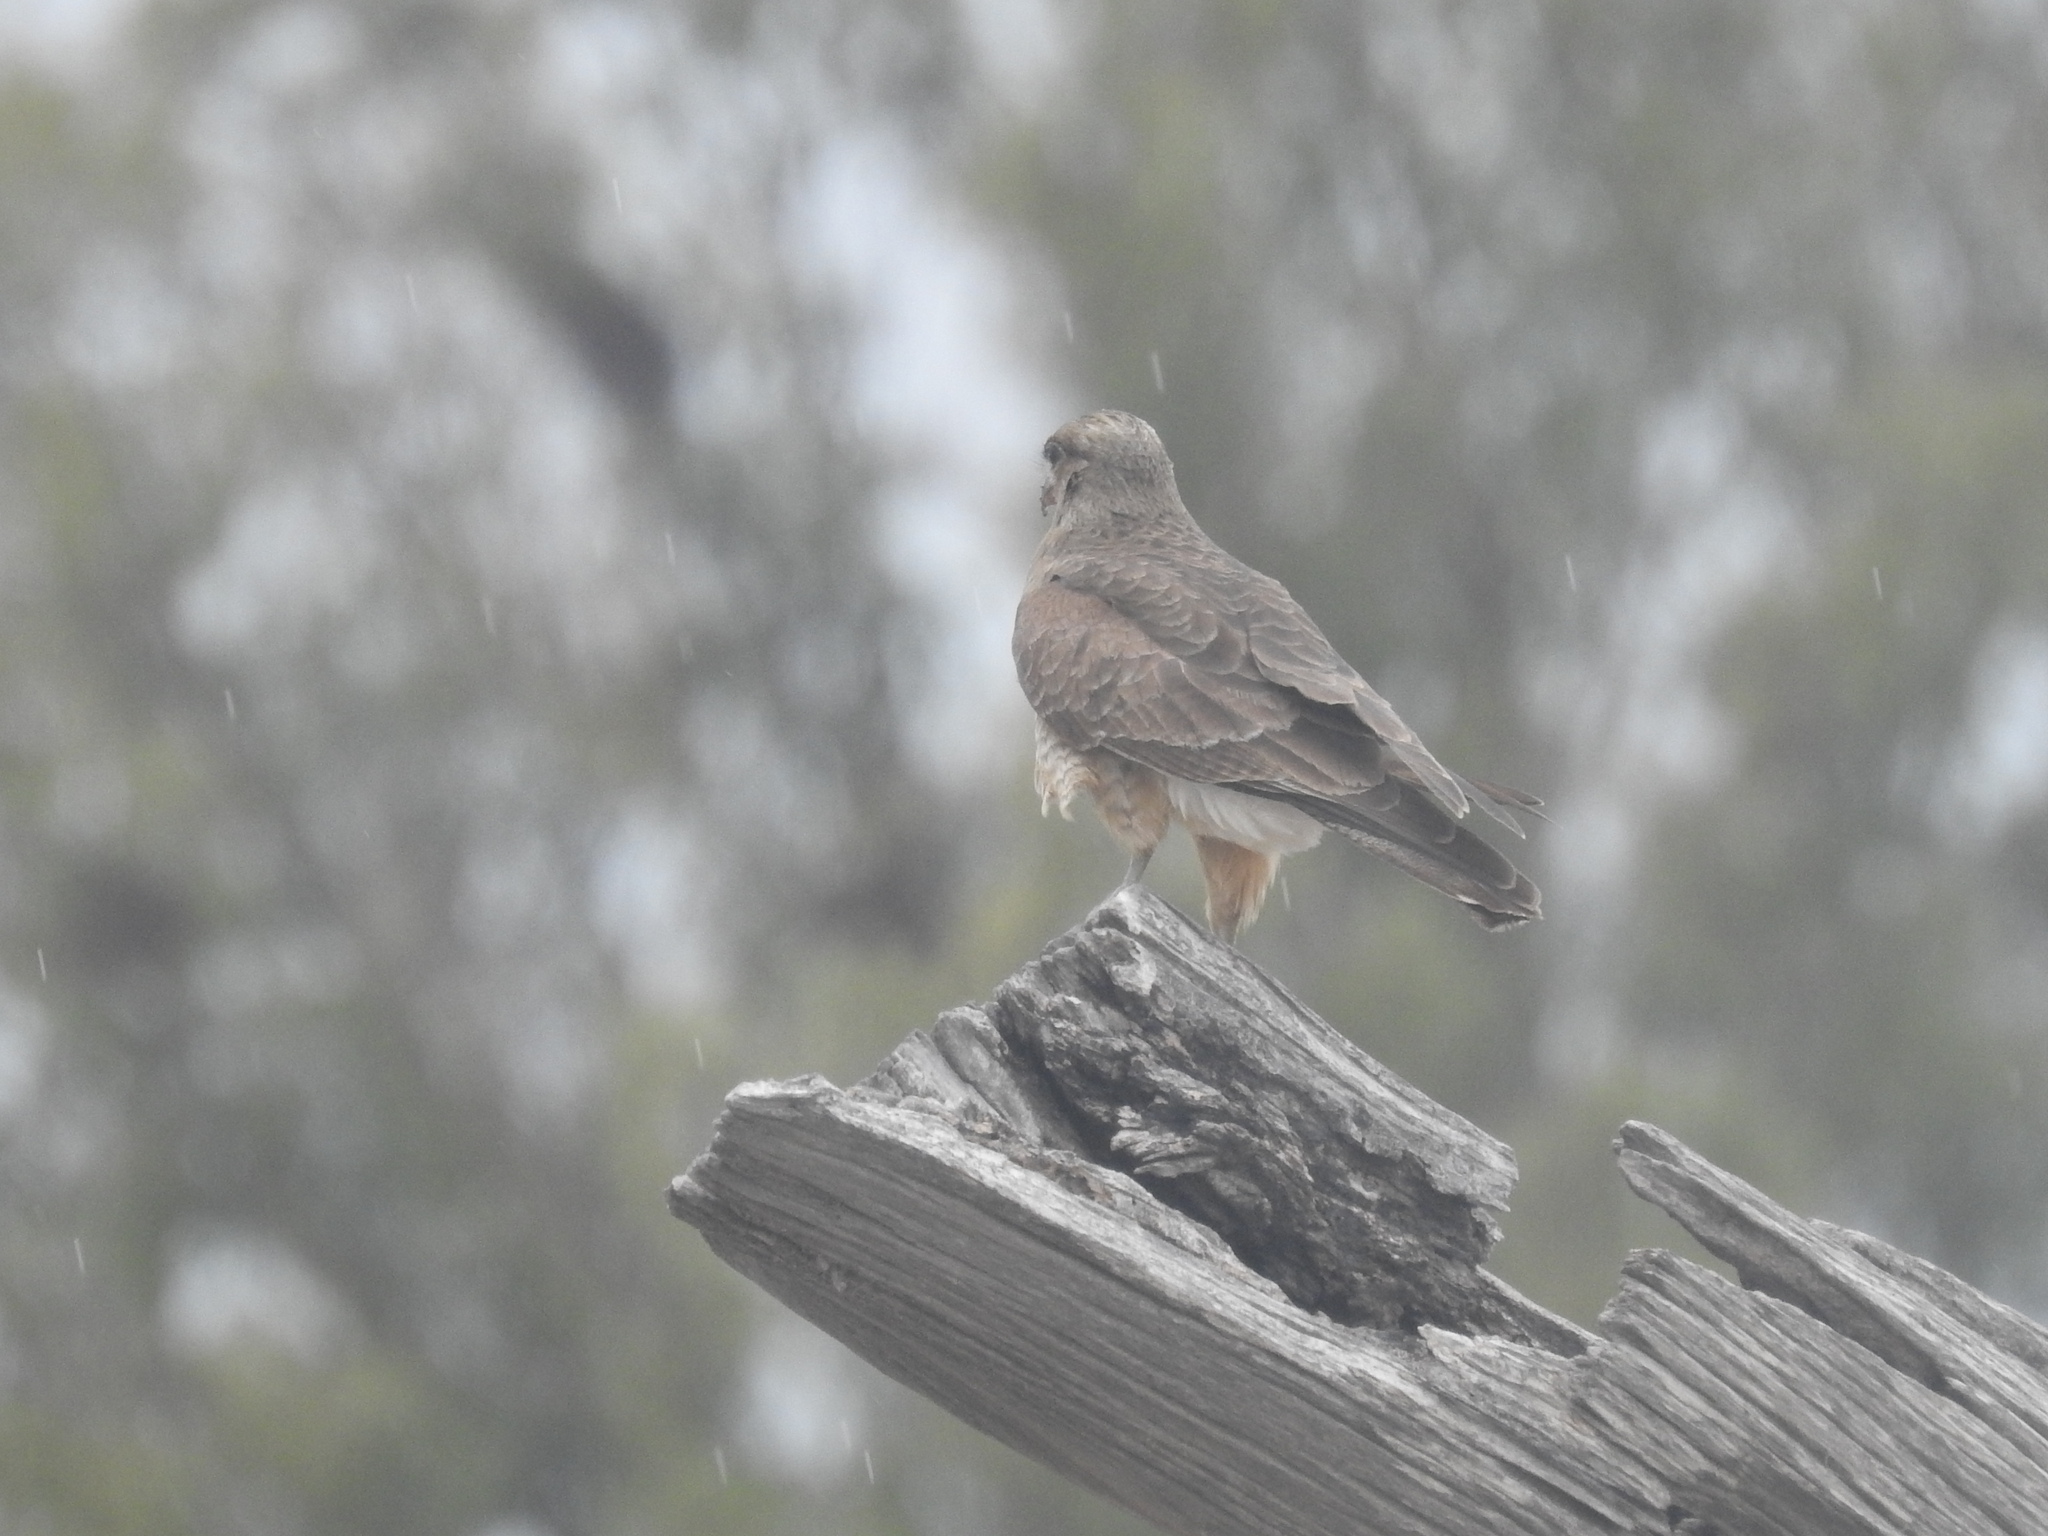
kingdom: Animalia
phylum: Chordata
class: Aves
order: Falconiformes
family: Falconidae
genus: Daptrius
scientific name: Daptrius
